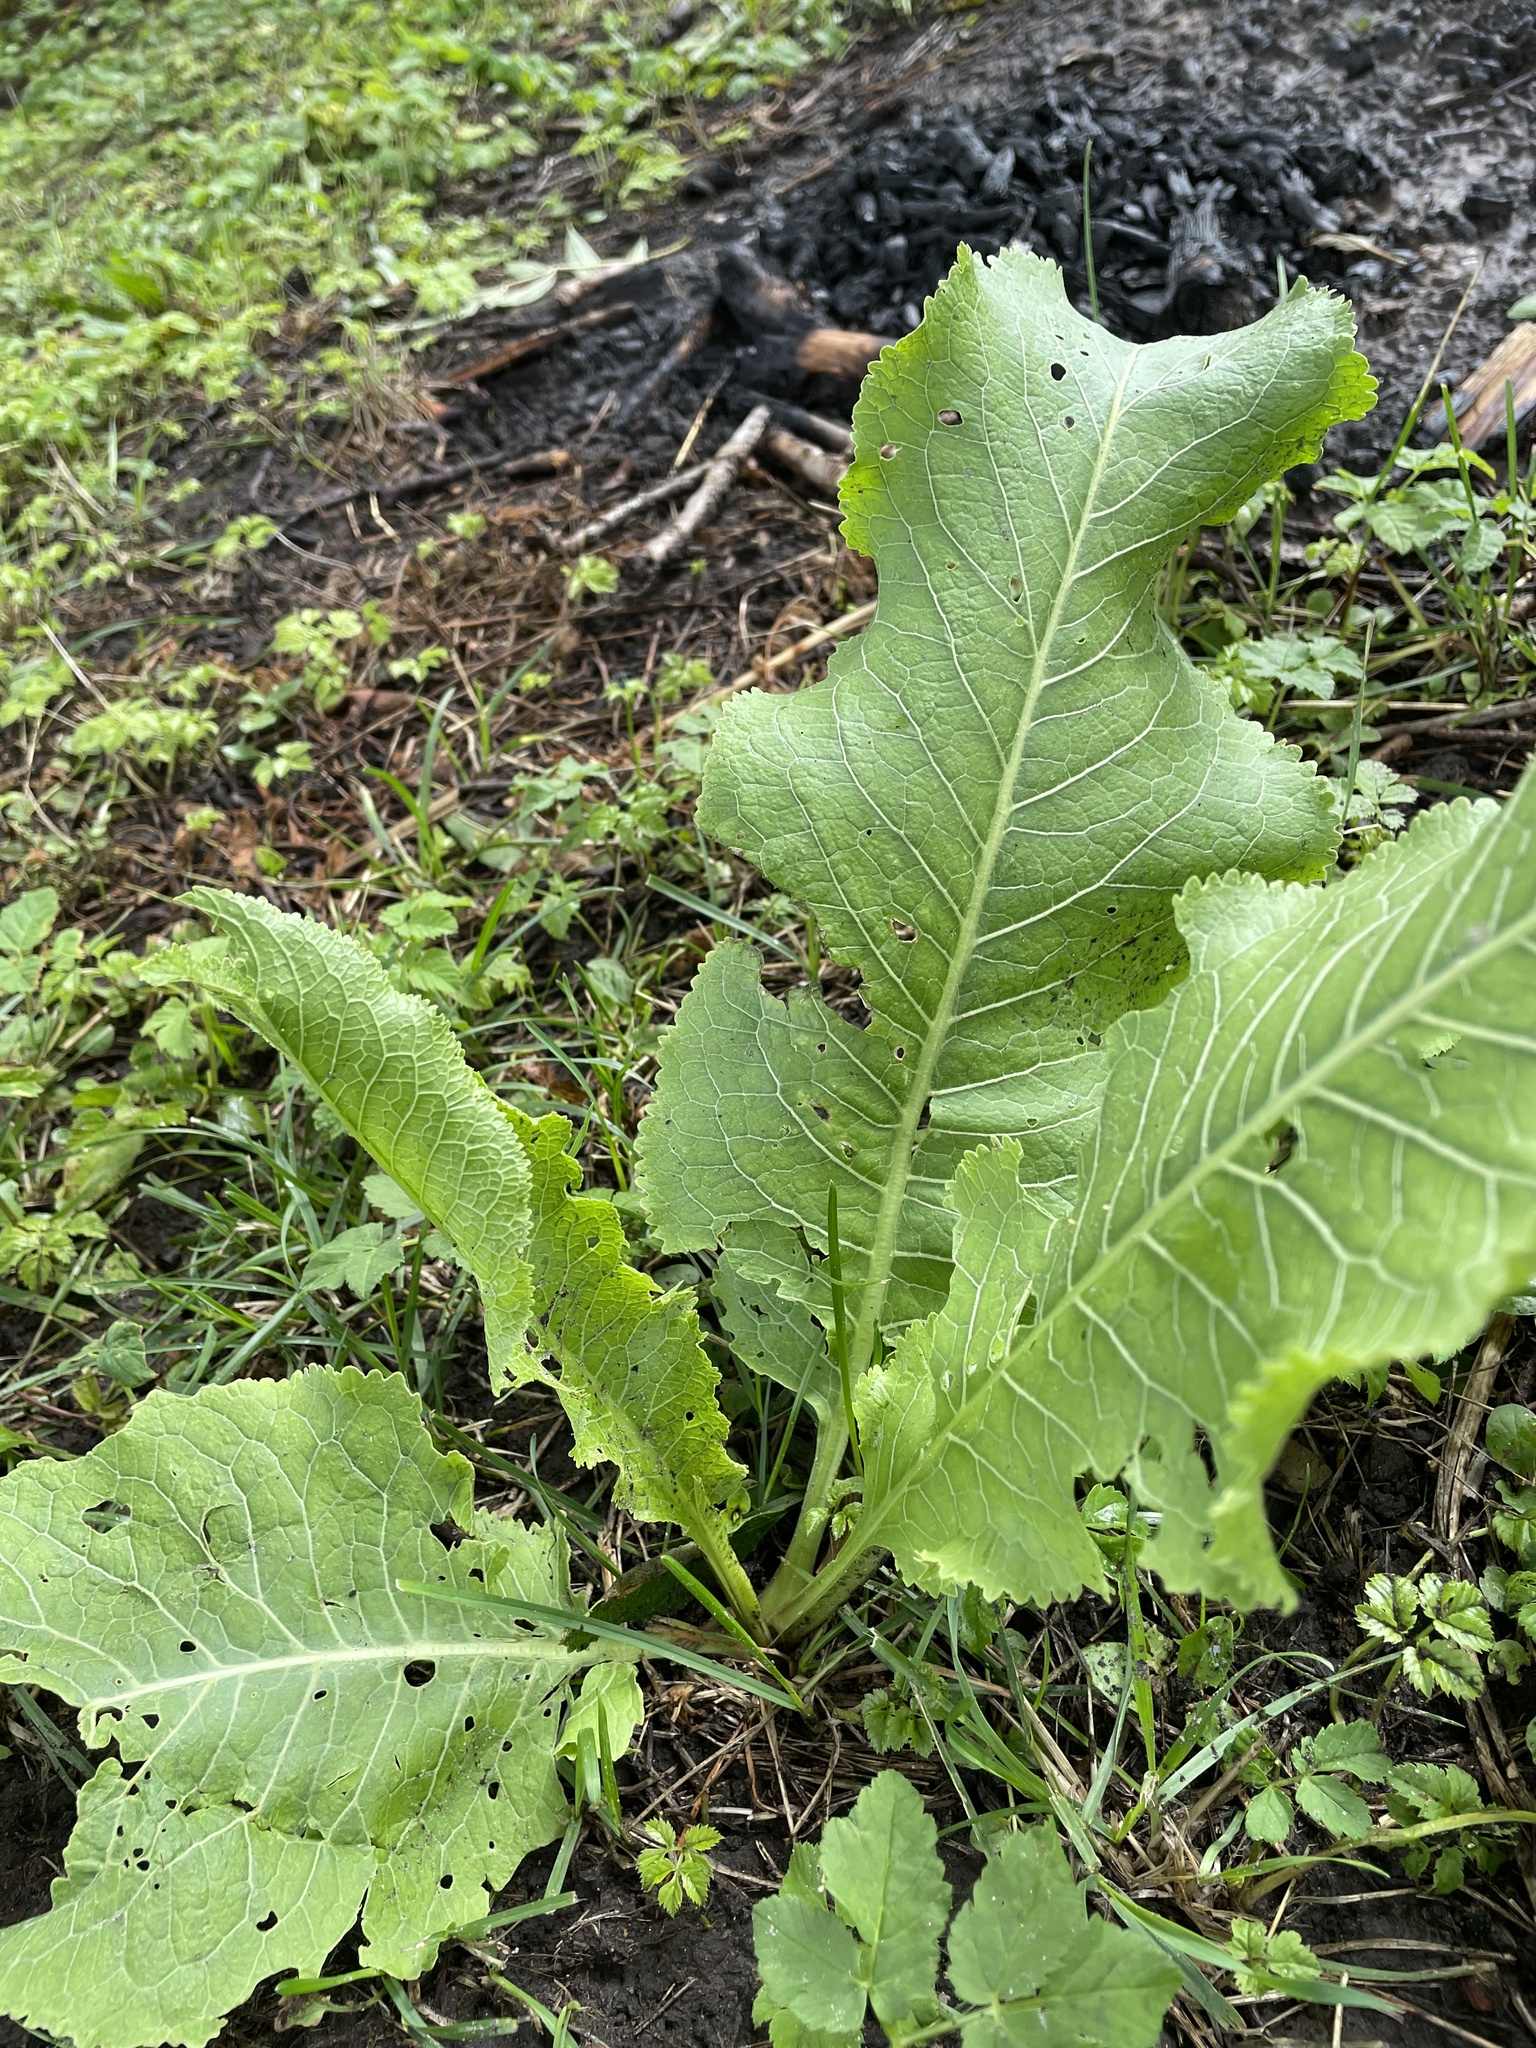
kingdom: Plantae
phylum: Tracheophyta
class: Magnoliopsida
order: Brassicales
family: Brassicaceae
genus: Armoracia
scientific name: Armoracia rusticana
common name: Horseradish
